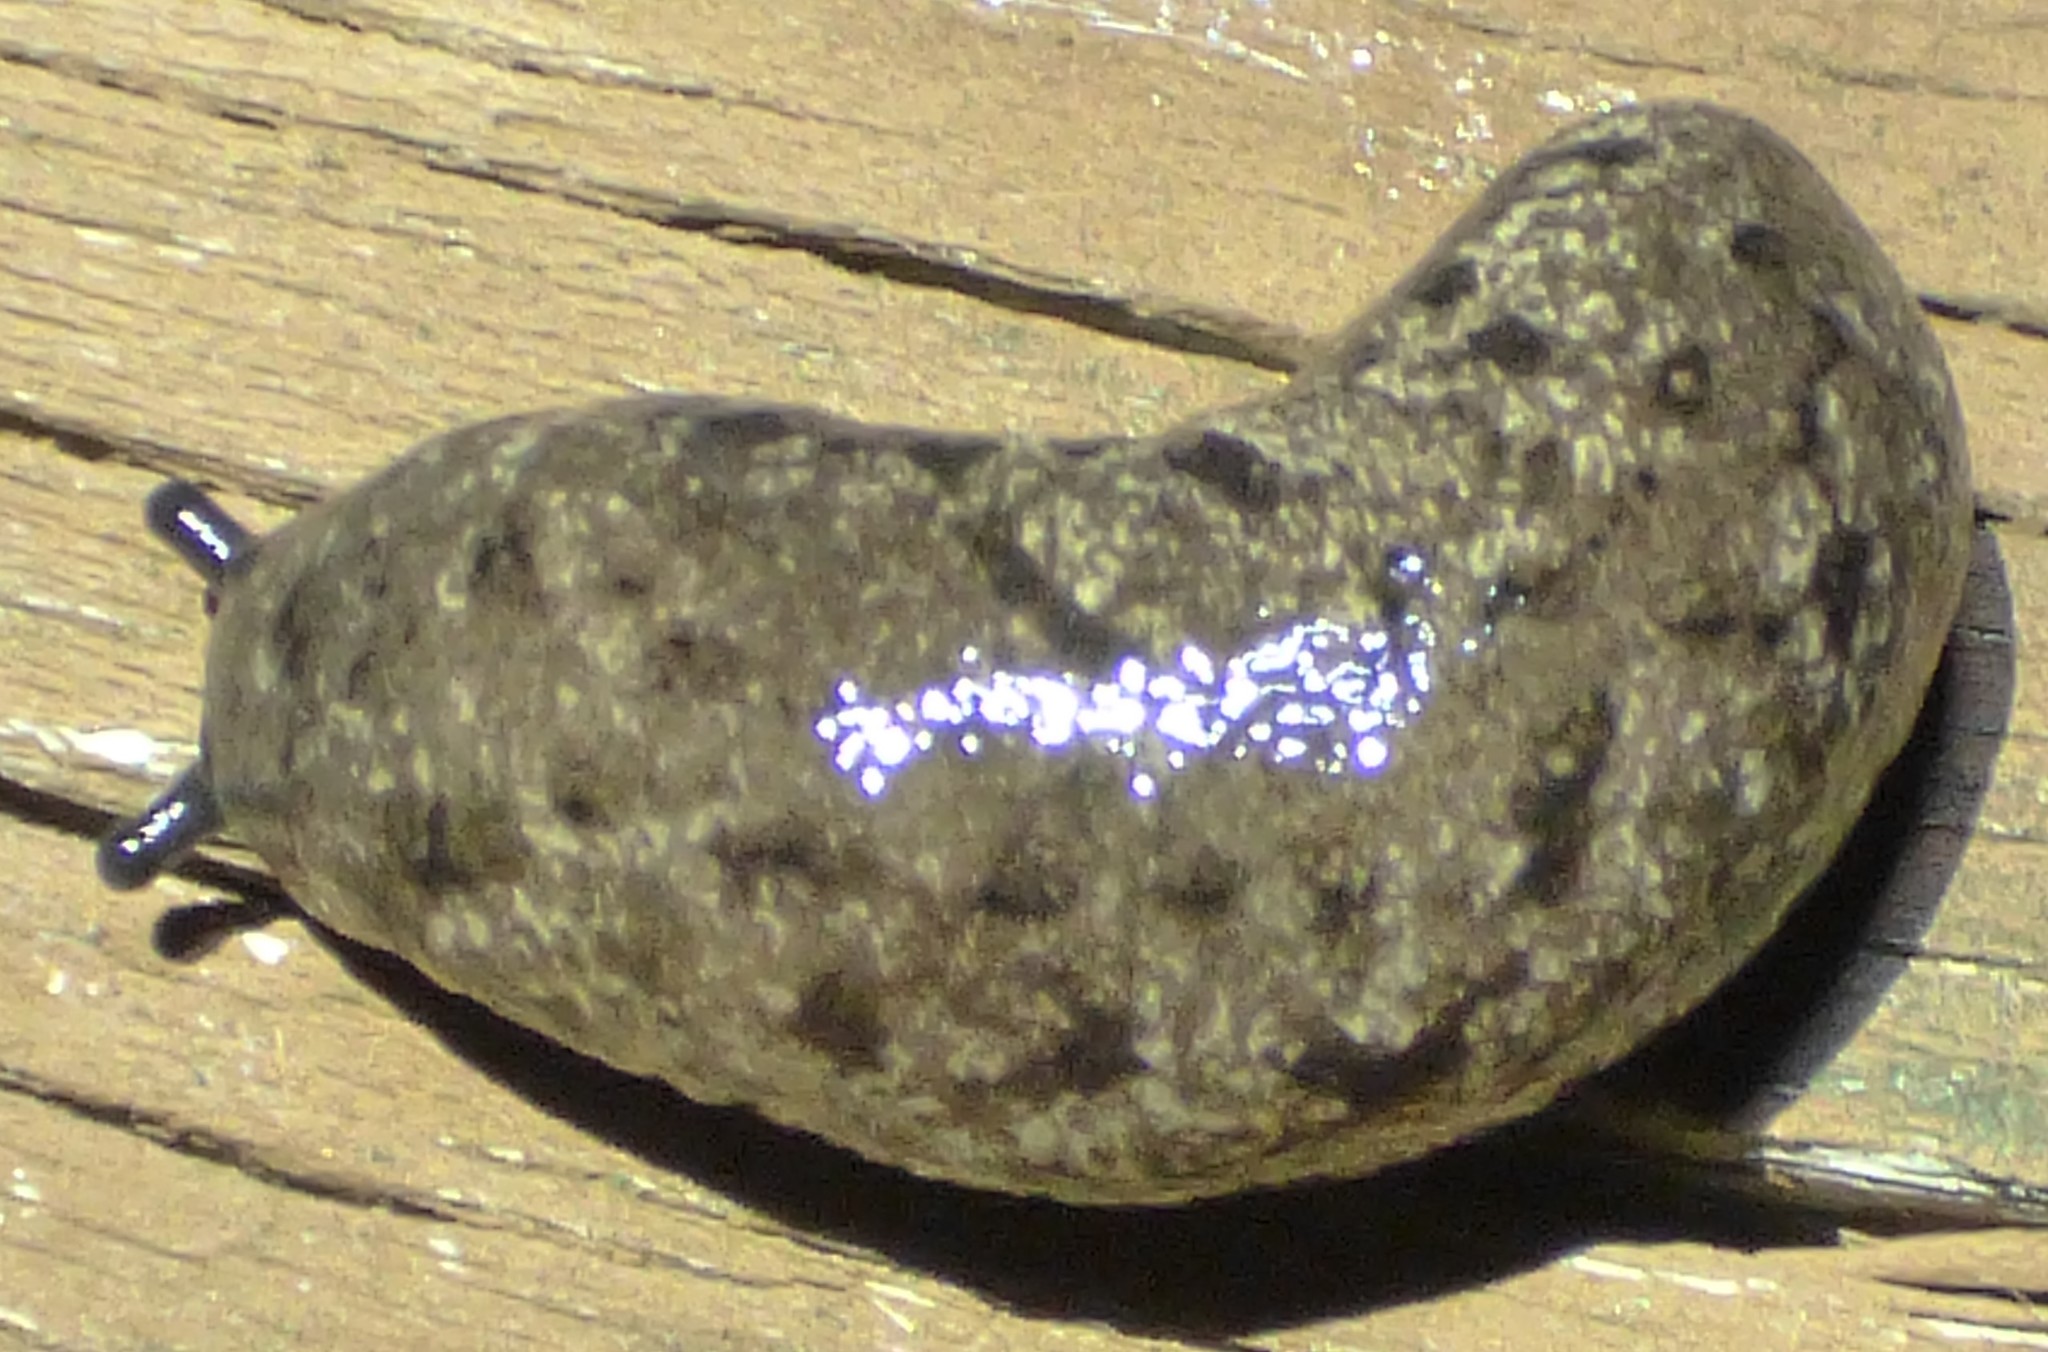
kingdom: Animalia
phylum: Mollusca
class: Gastropoda
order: Stylommatophora
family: Philomycidae
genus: Megapallifera
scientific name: Megapallifera mutabilis
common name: Changeable mantleslug
